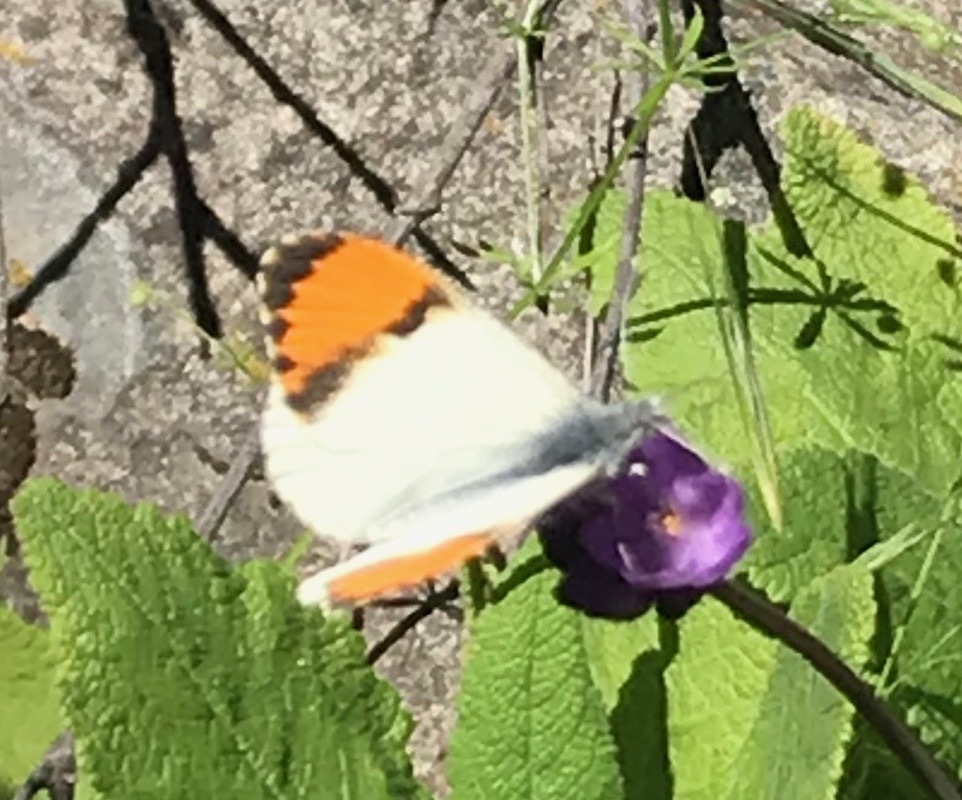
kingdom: Animalia
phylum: Arthropoda
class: Insecta
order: Lepidoptera
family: Pieridae
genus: Anthocharis
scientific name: Anthocharis sara
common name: Sara's orangetip
